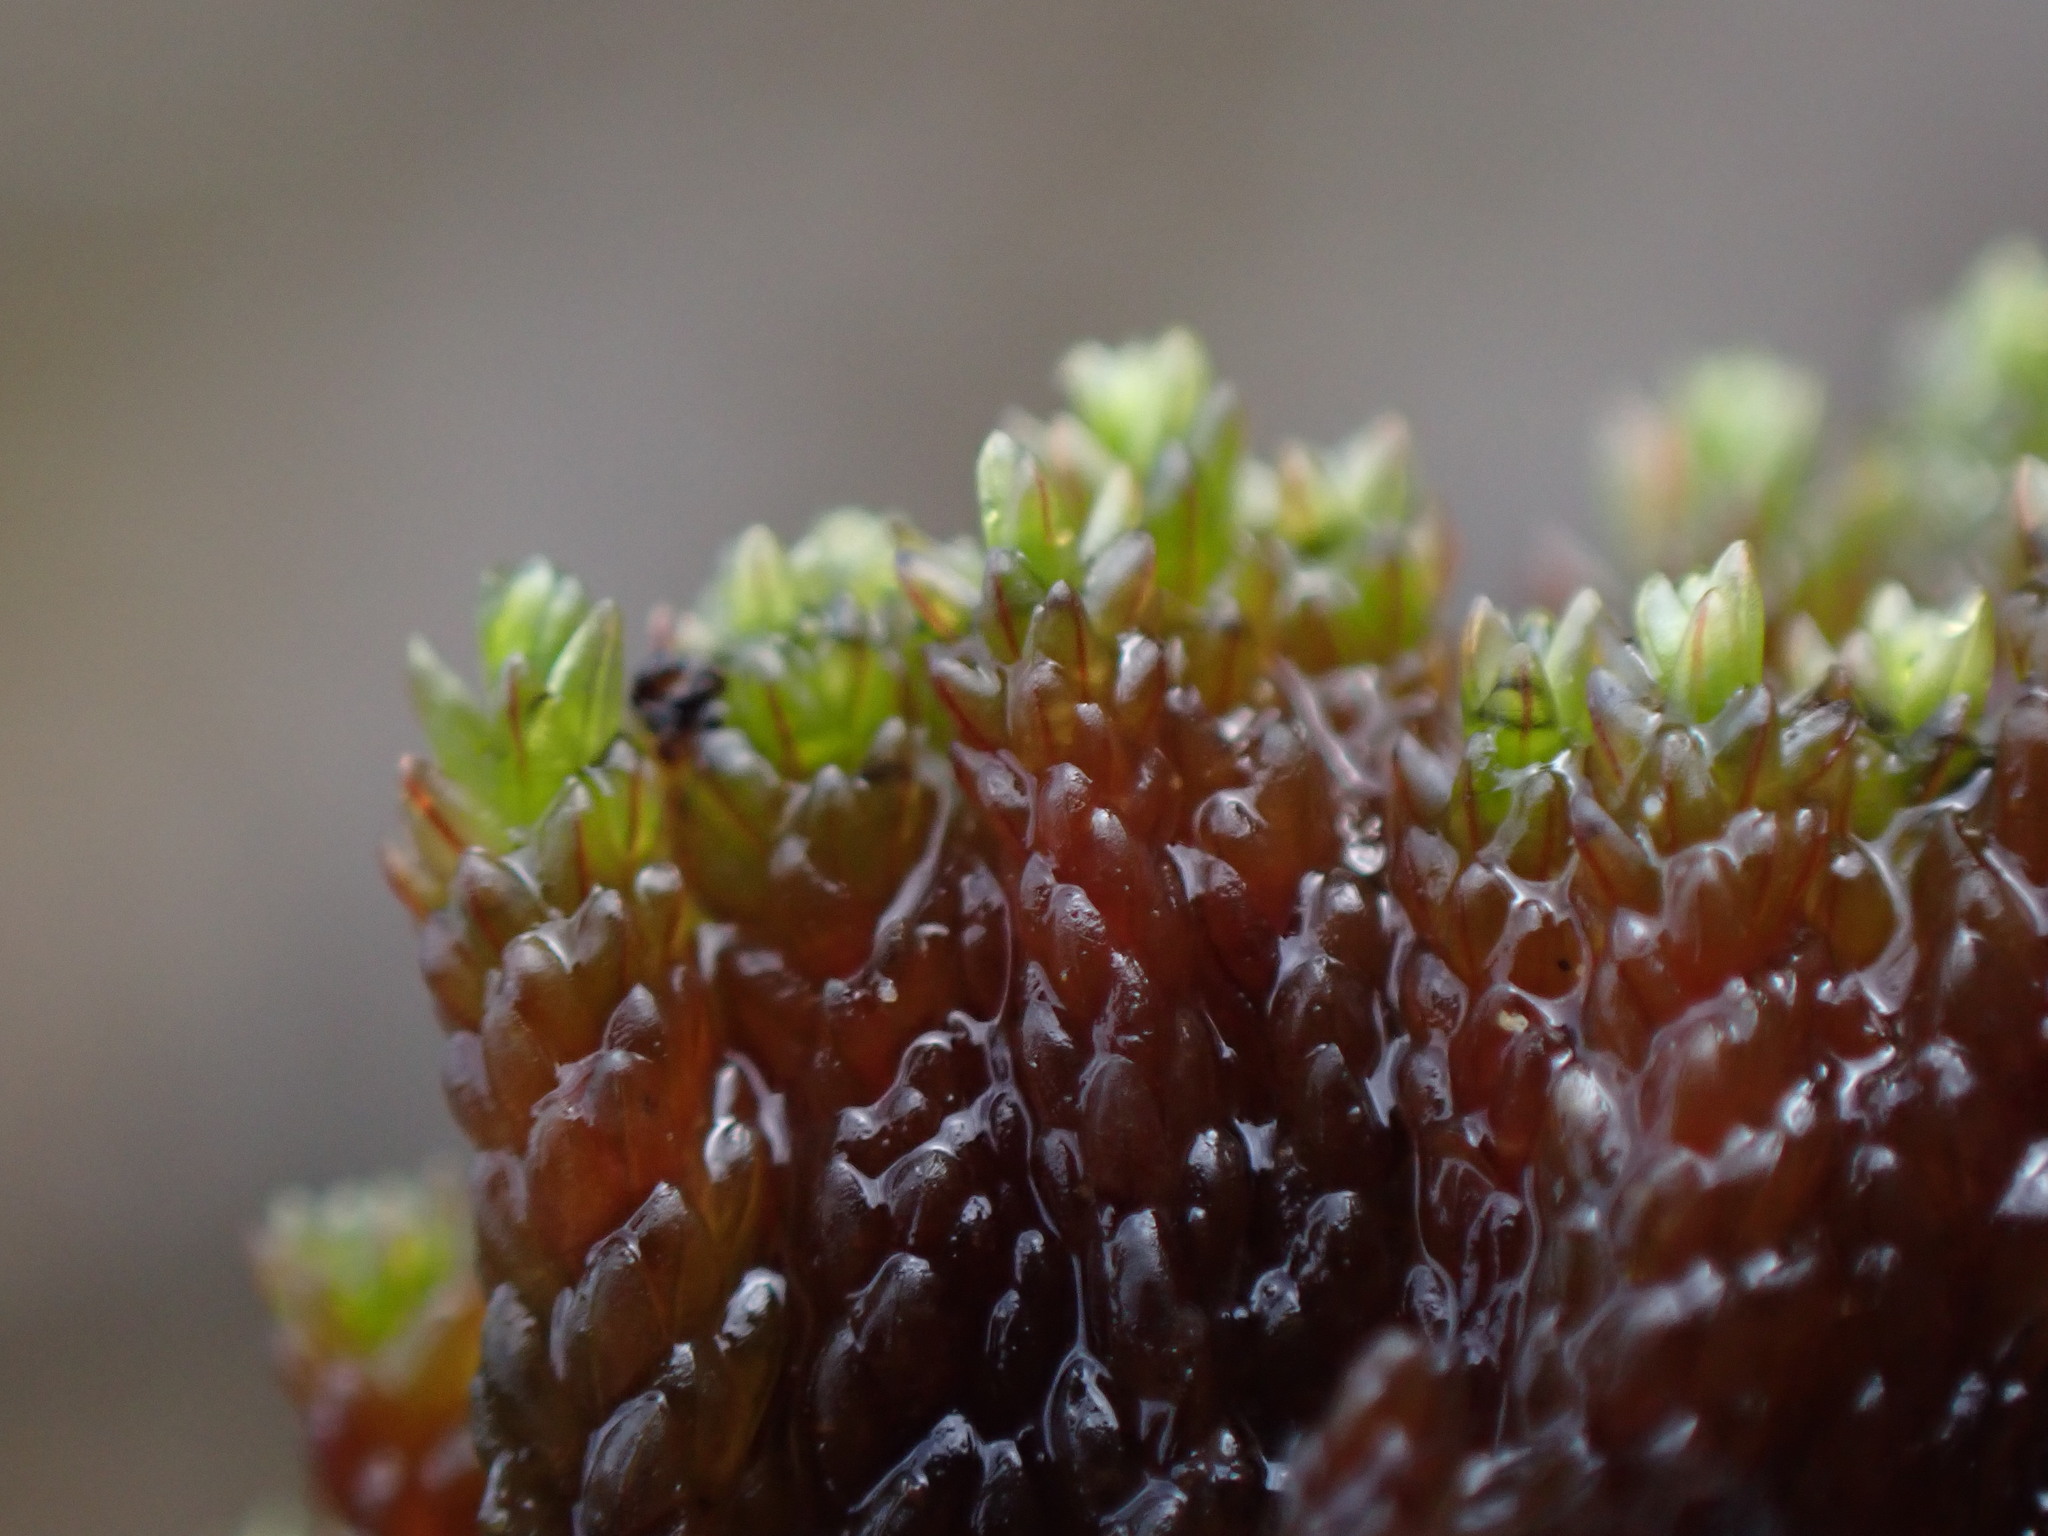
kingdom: Plantae
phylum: Bryophyta
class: Bryopsida
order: Bryales
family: Bryaceae
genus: Imbribryum
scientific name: Imbribryum miniatum
